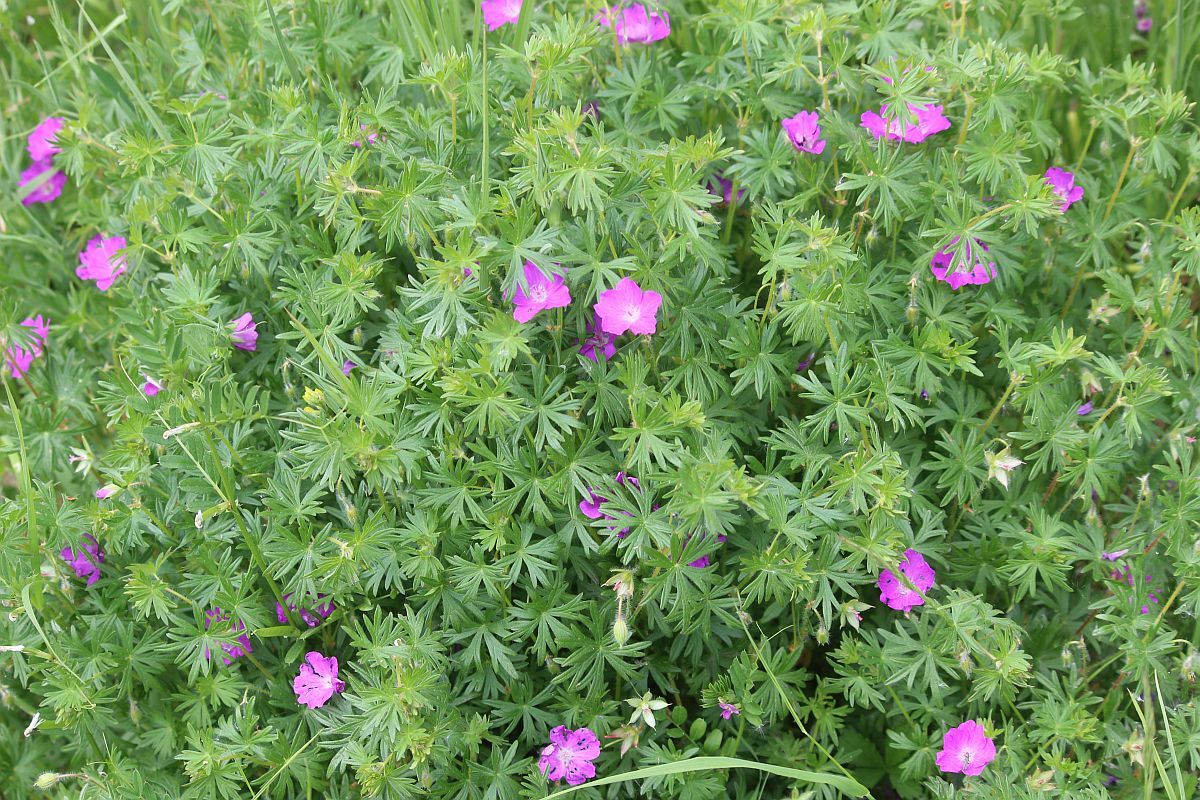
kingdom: Plantae
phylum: Tracheophyta
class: Magnoliopsida
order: Geraniales
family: Geraniaceae
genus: Geranium
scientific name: Geranium sanguineum
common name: Bloody crane's-bill
